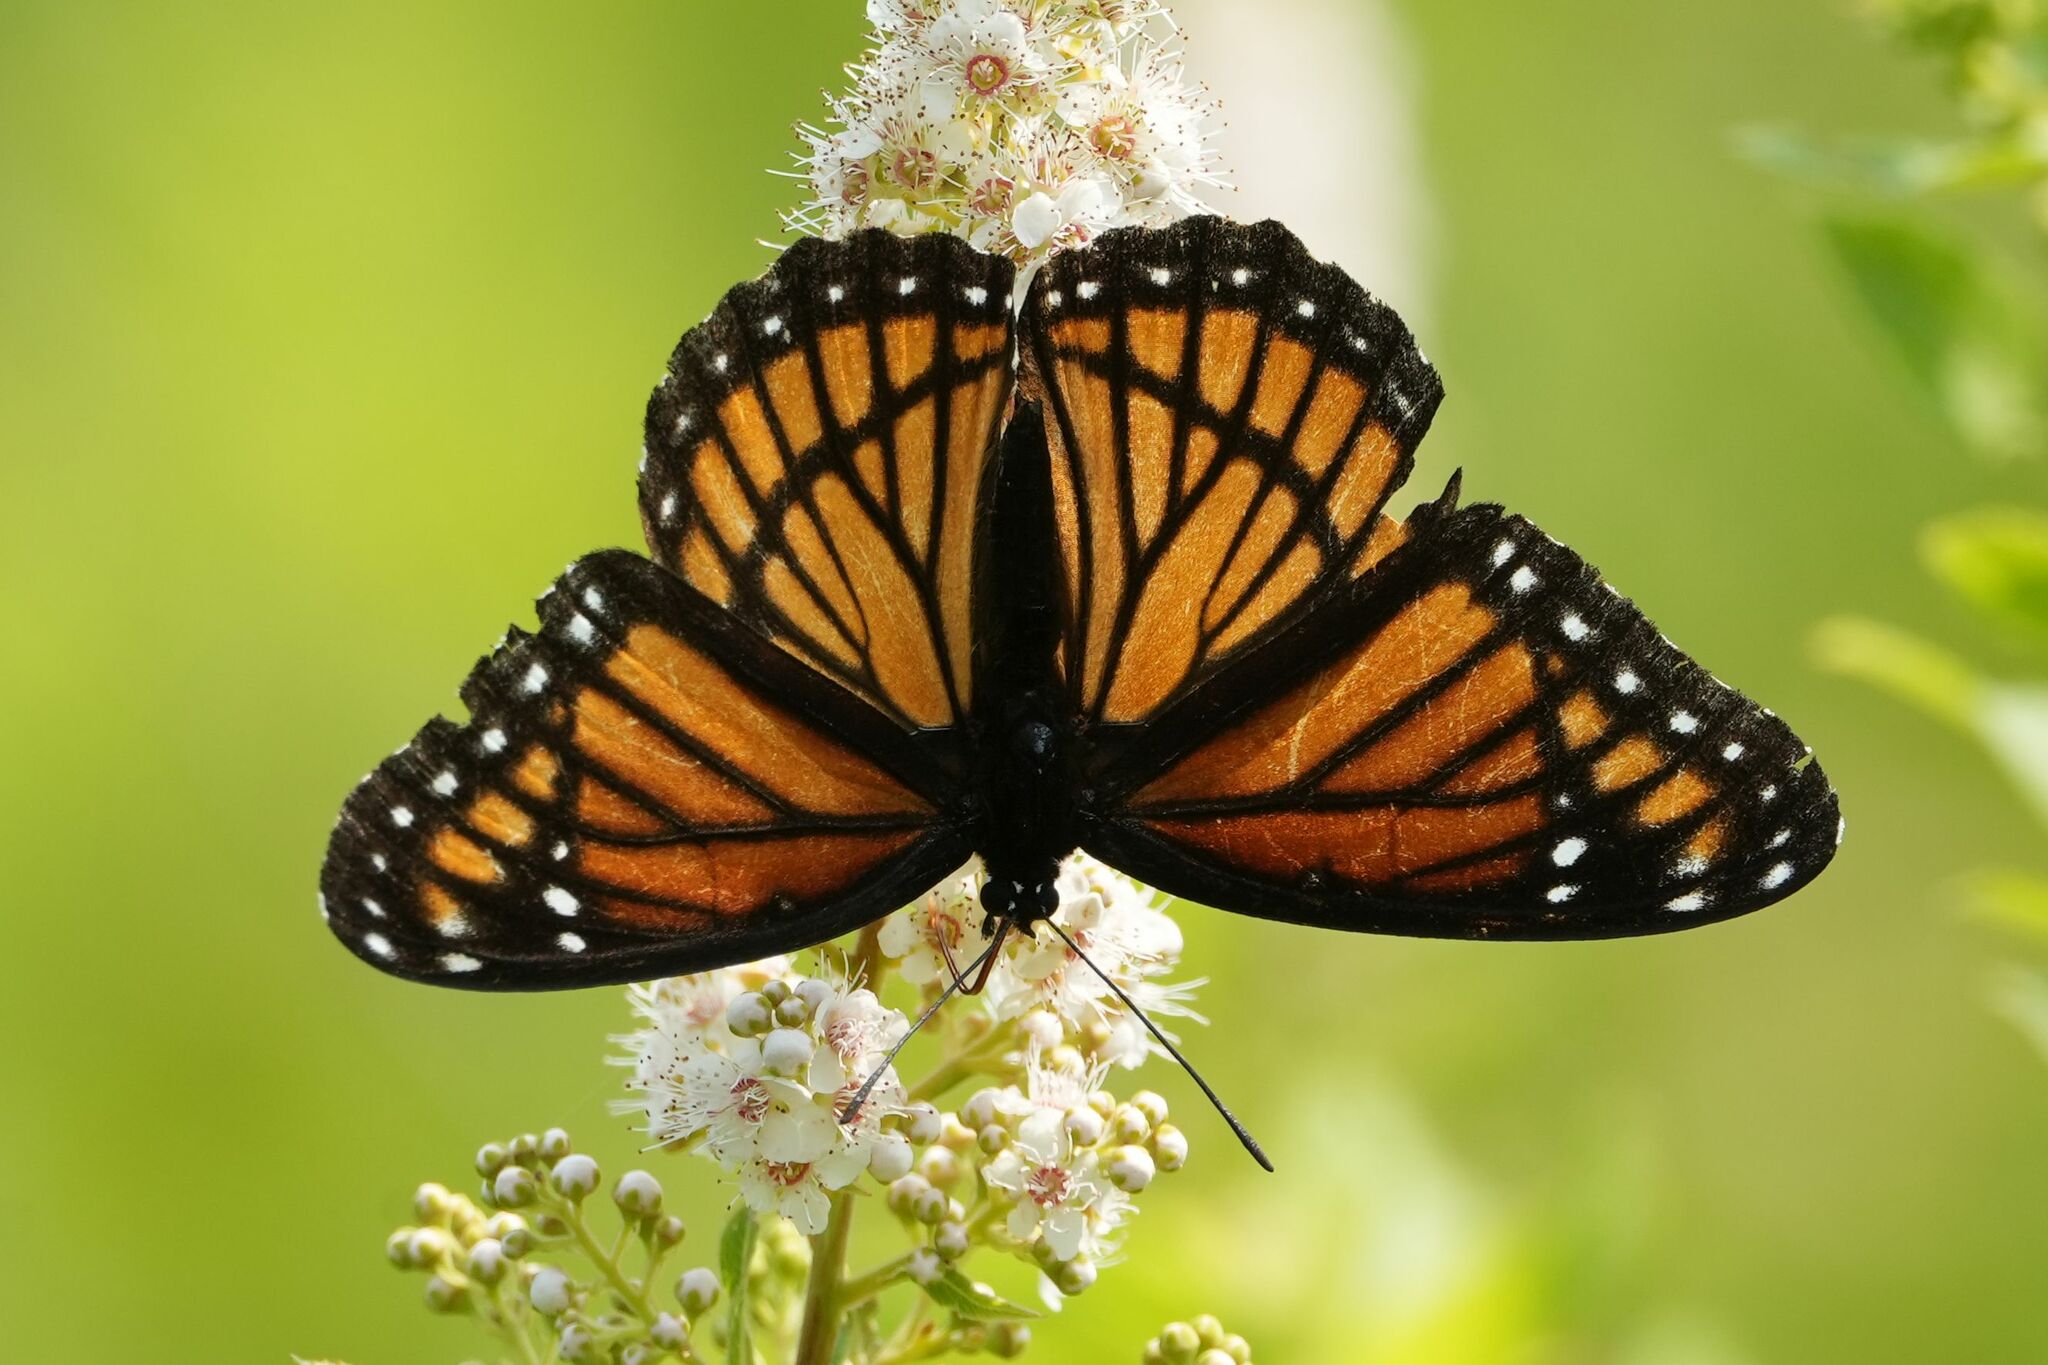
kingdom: Animalia
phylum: Arthropoda
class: Insecta
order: Lepidoptera
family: Nymphalidae
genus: Limenitis
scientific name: Limenitis archippus
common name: Viceroy
